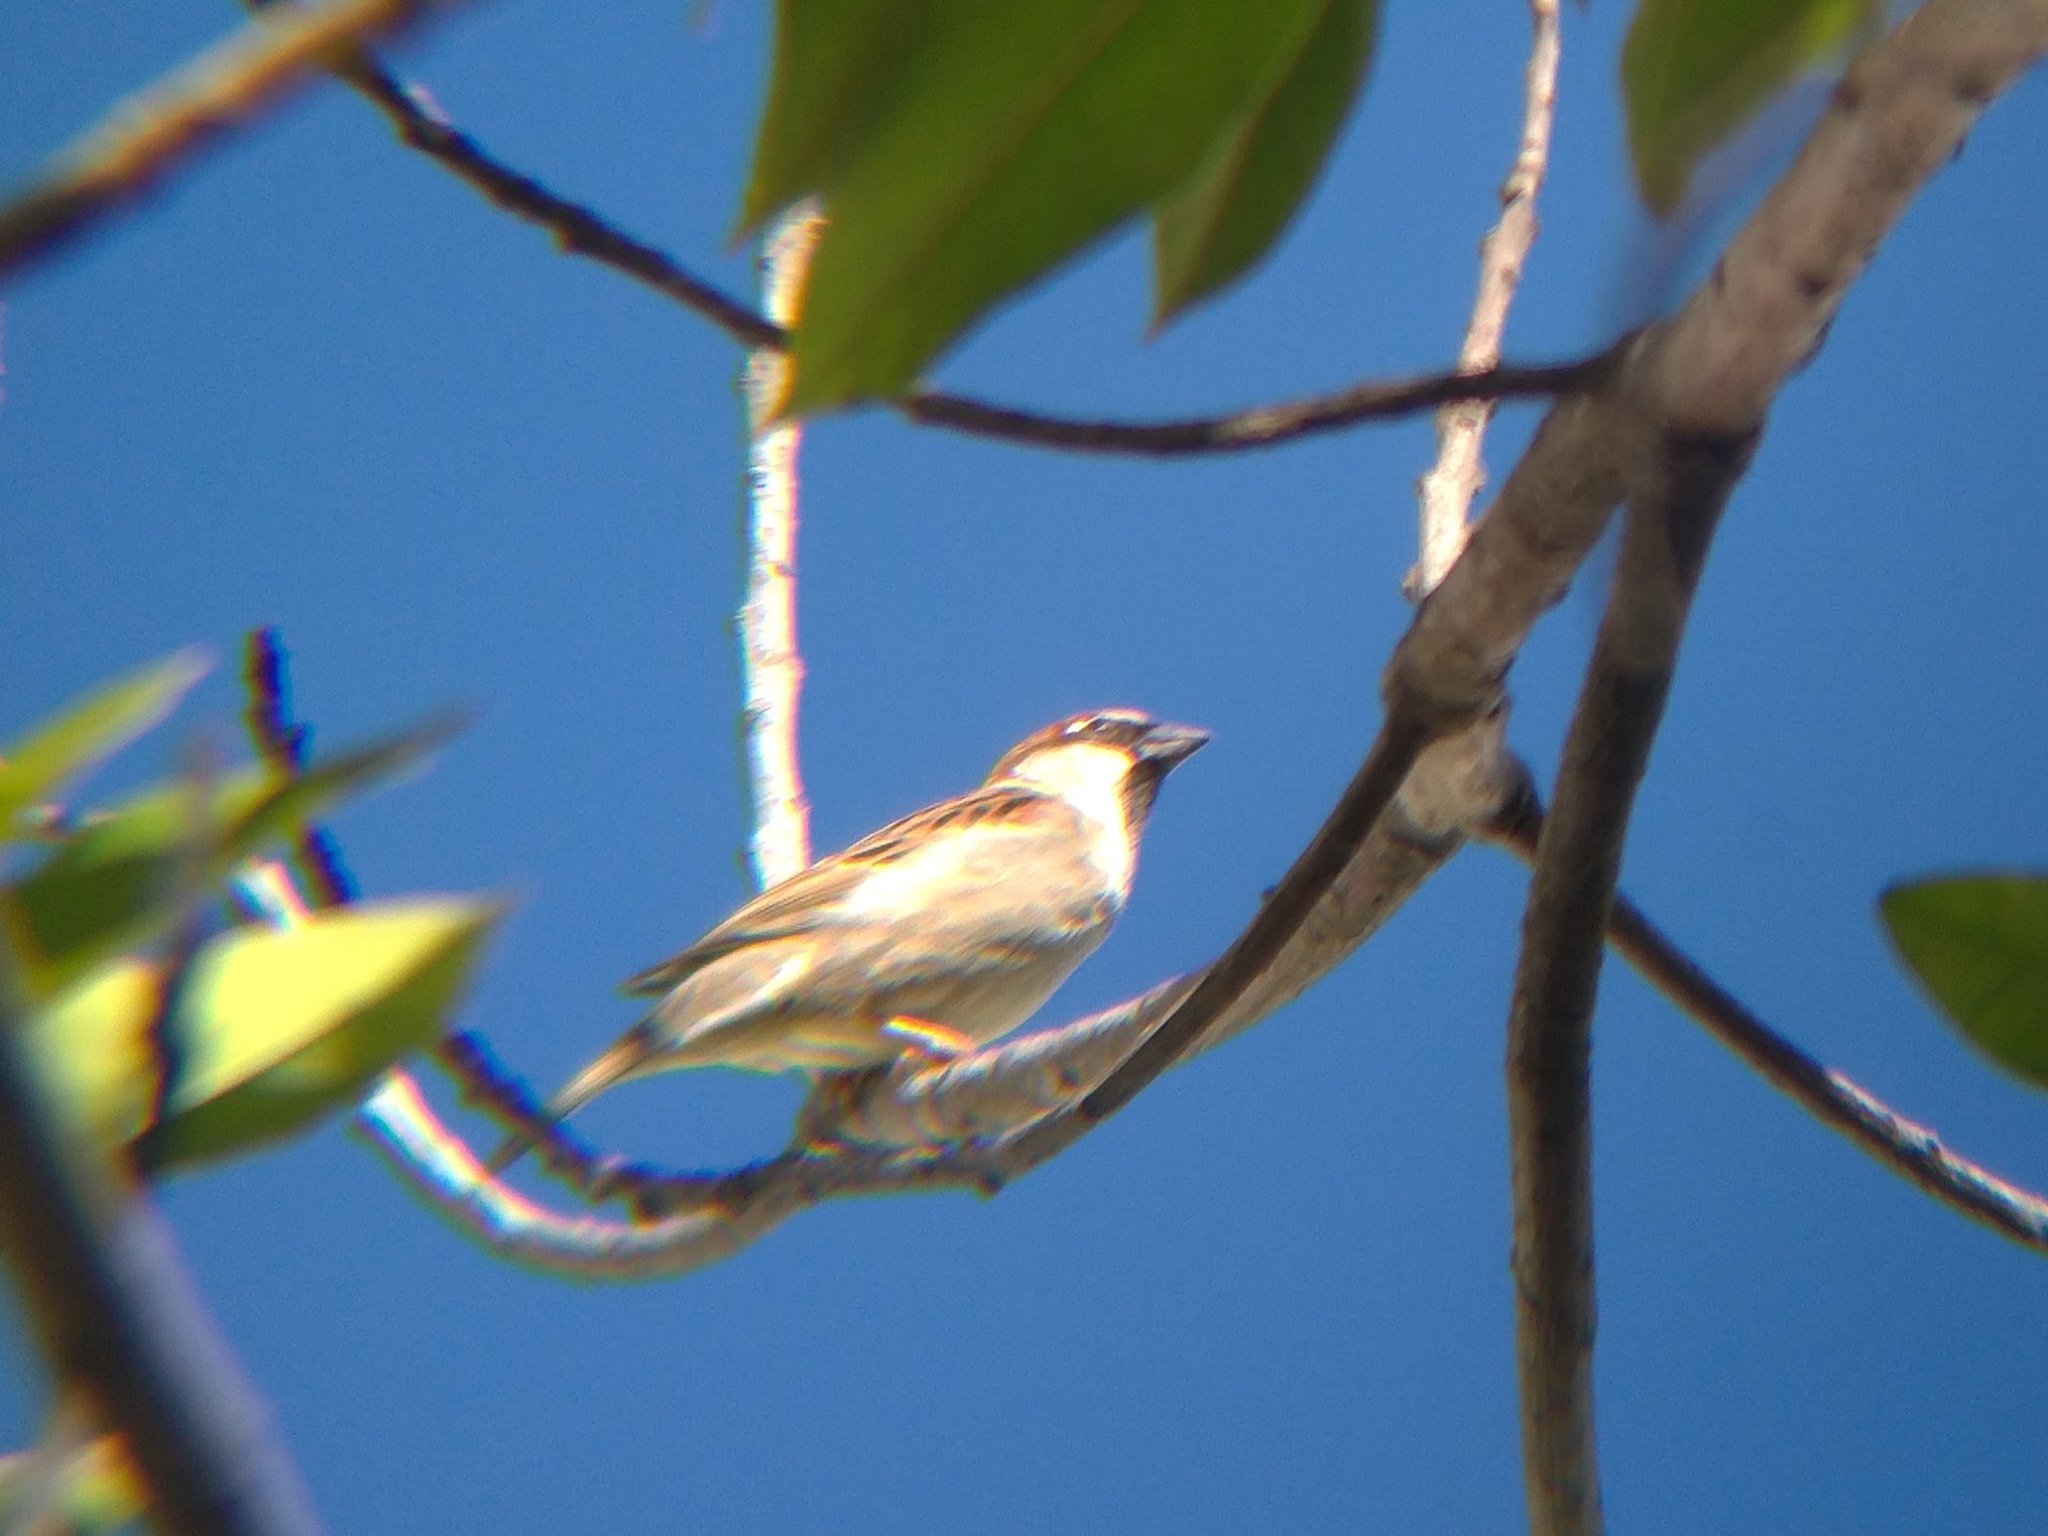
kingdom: Animalia
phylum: Chordata
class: Aves
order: Passeriformes
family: Passeridae
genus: Passer
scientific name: Passer domesticus
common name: House sparrow
